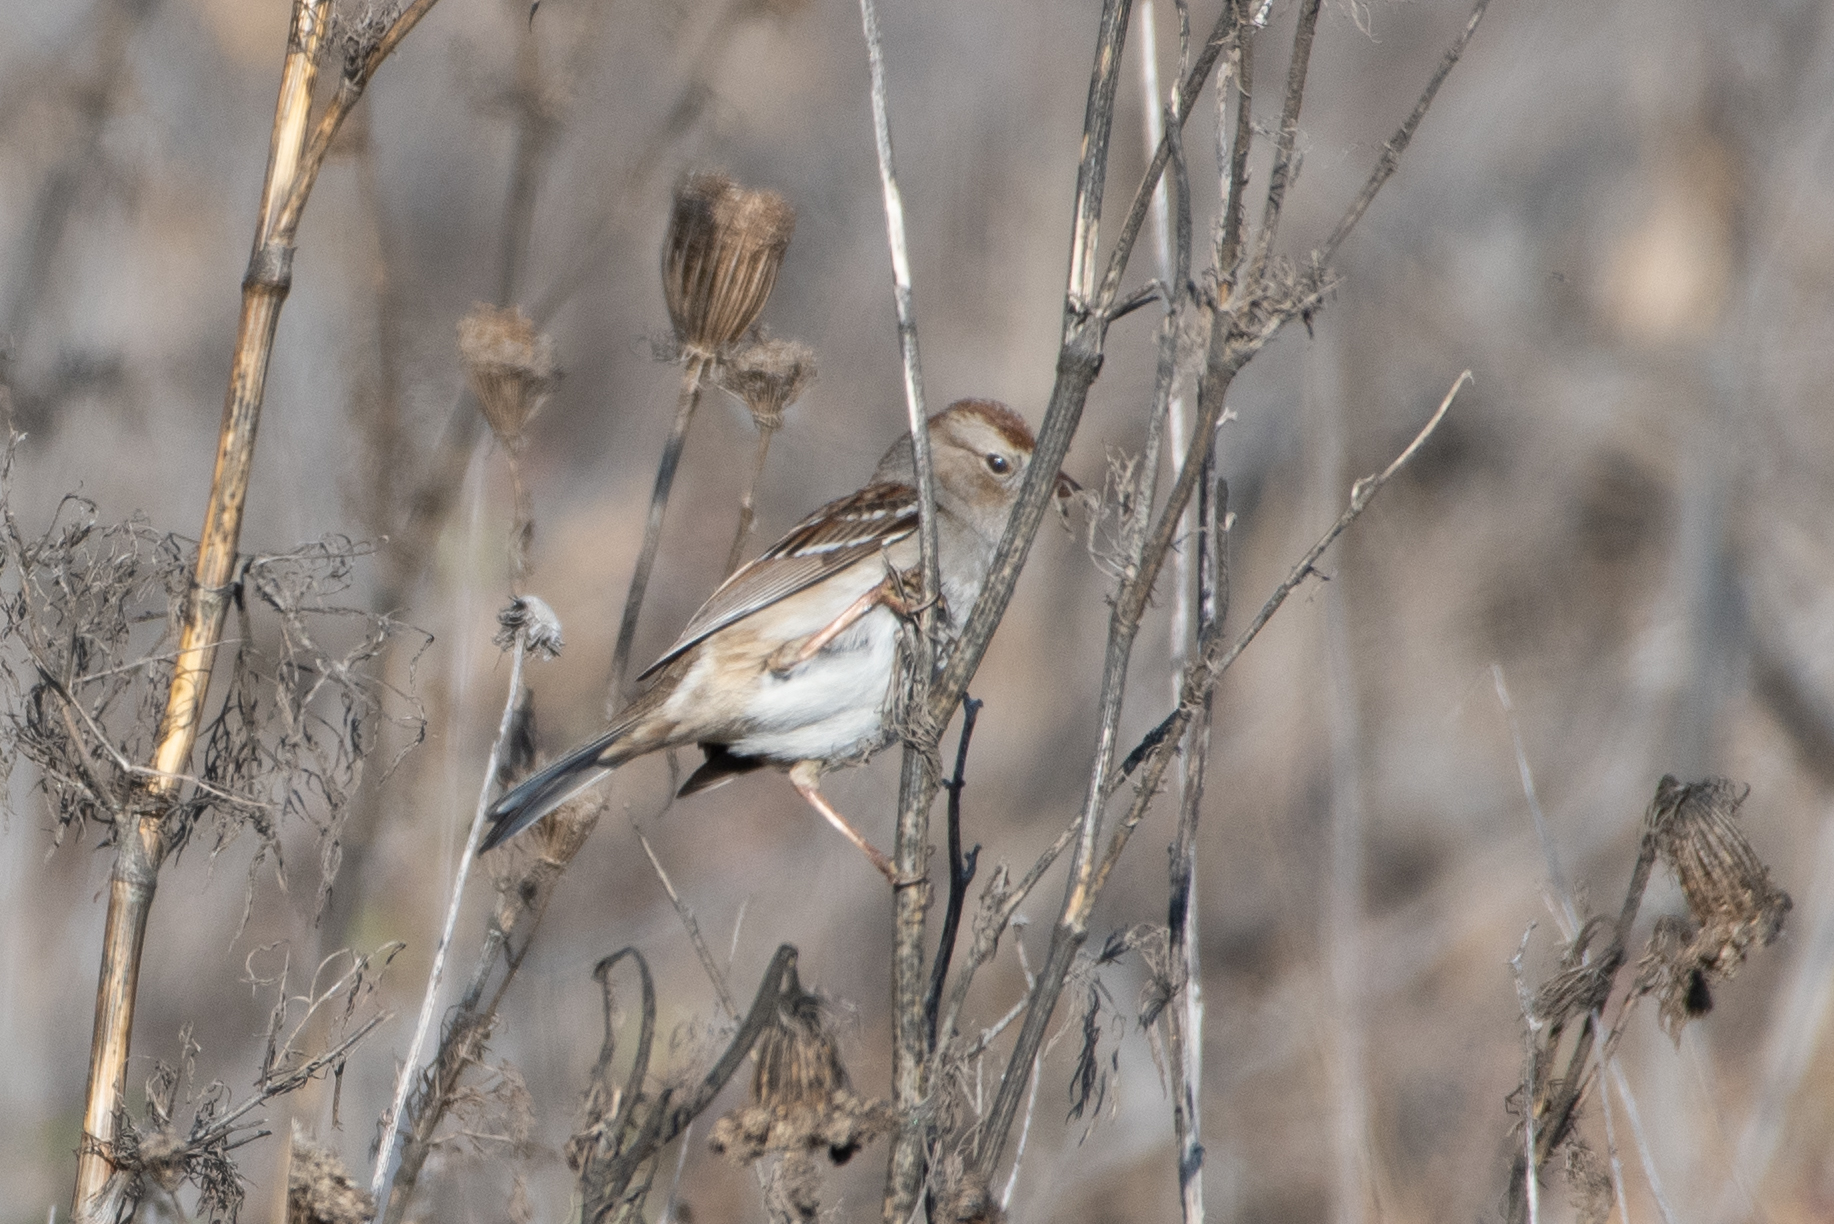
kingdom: Animalia
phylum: Chordata
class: Aves
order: Passeriformes
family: Passerellidae
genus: Zonotrichia
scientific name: Zonotrichia leucophrys
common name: White-crowned sparrow
